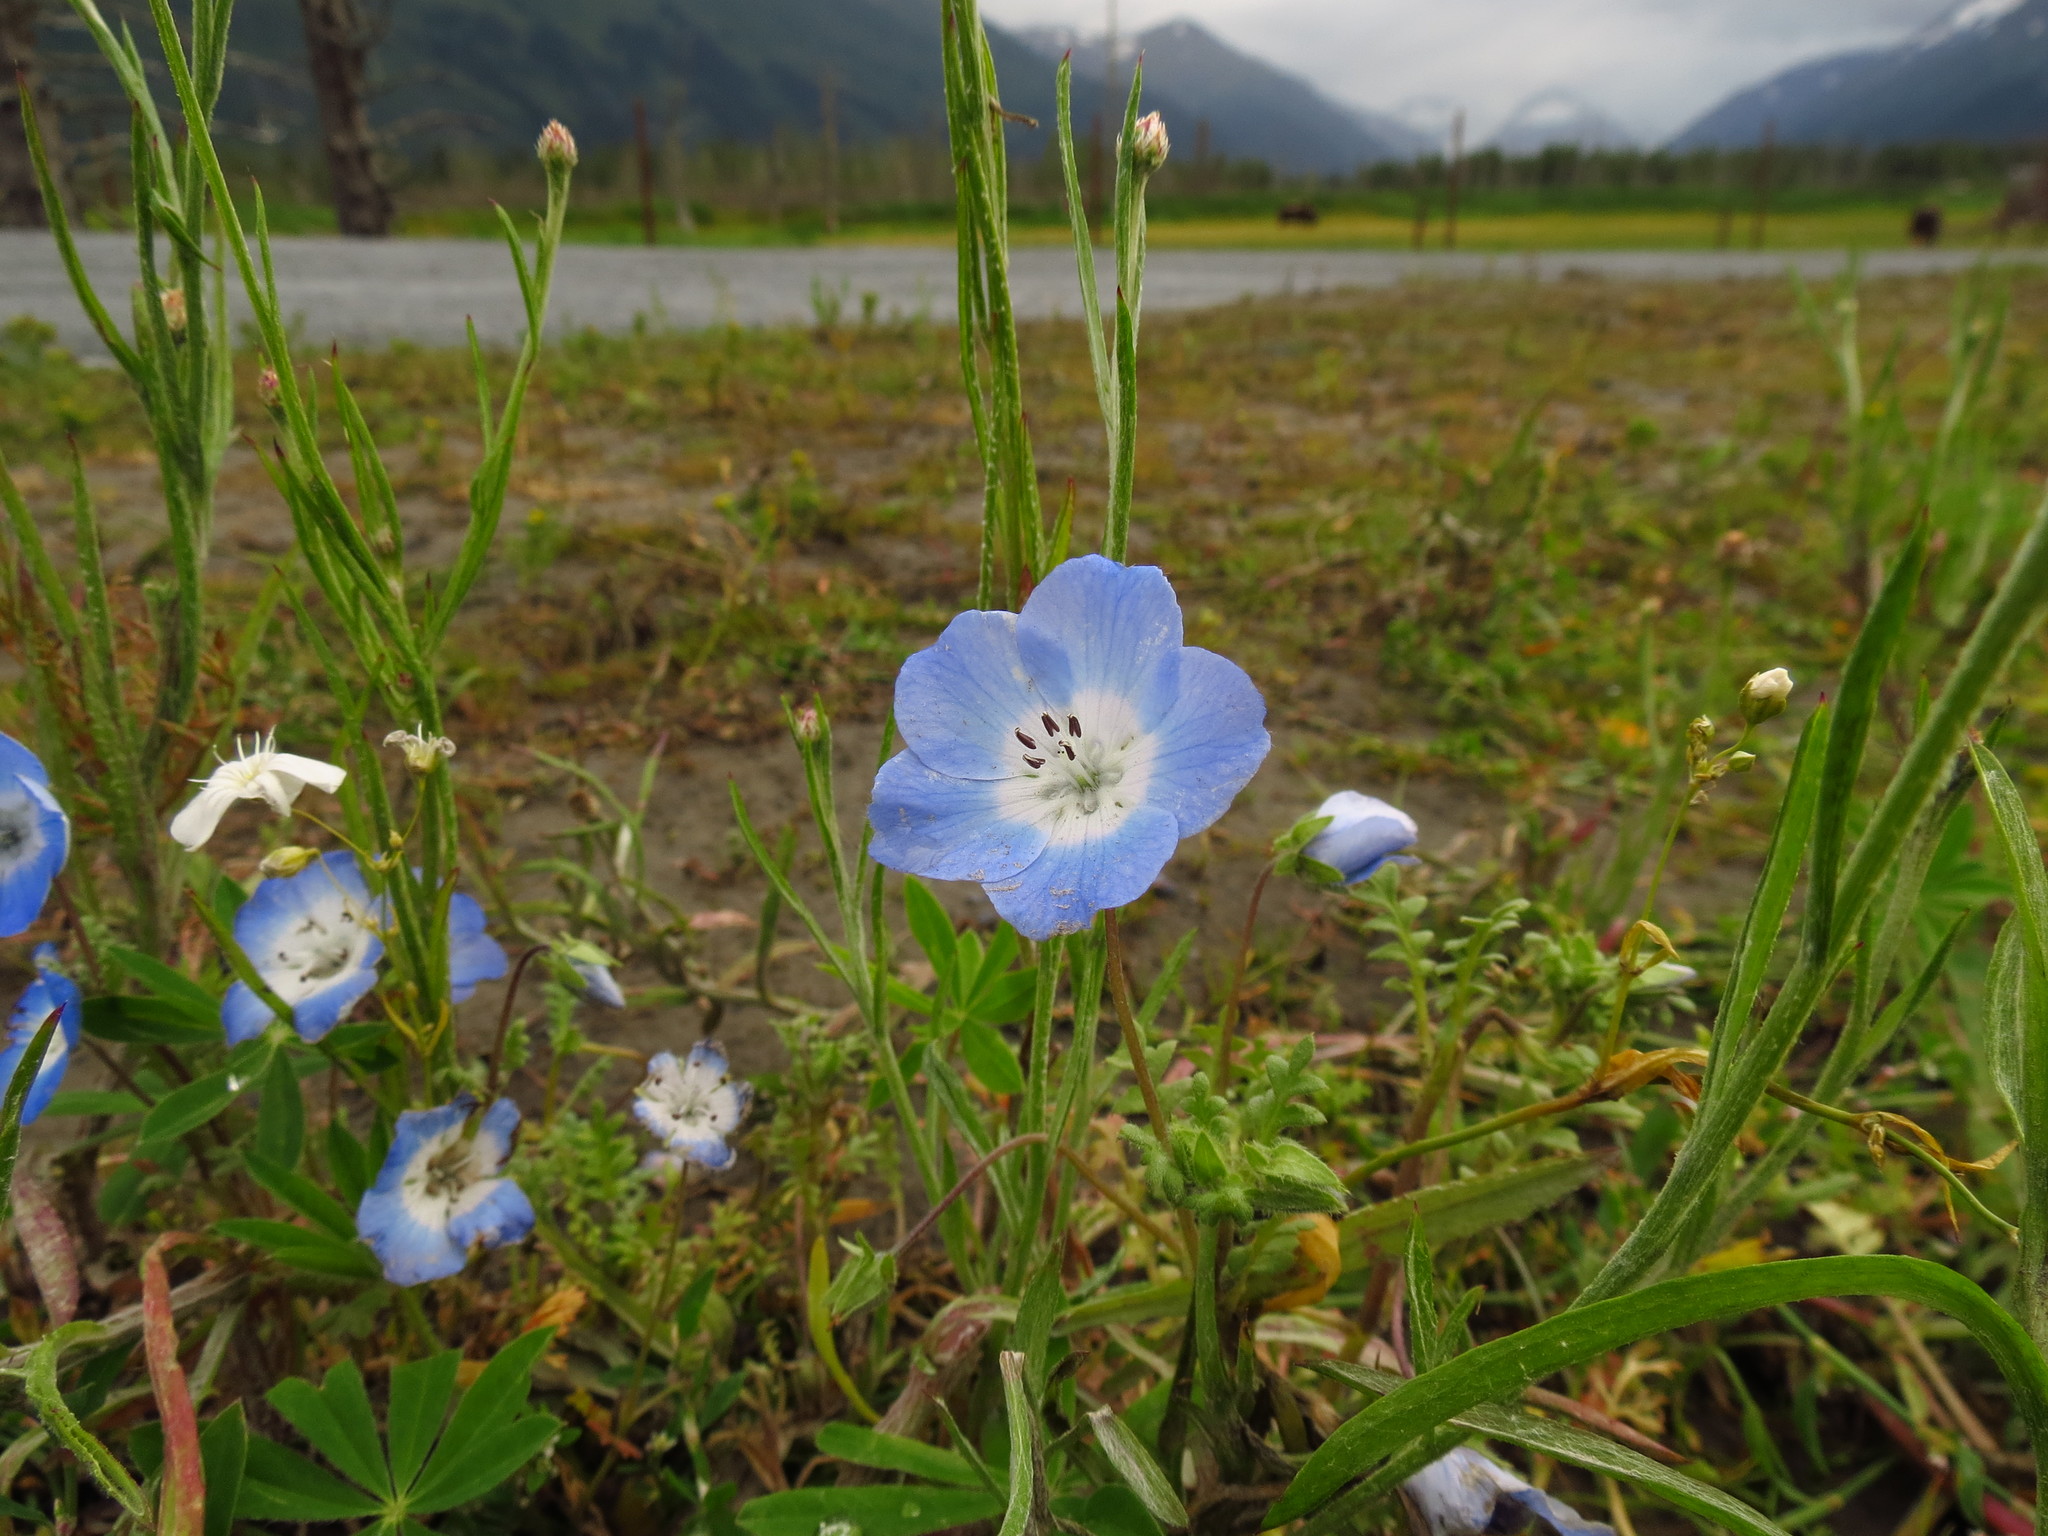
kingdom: Plantae
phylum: Tracheophyta
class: Magnoliopsida
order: Boraginales
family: Hydrophyllaceae
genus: Nemophila
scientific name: Nemophila menziesii
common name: Baby's-blue-eyes
